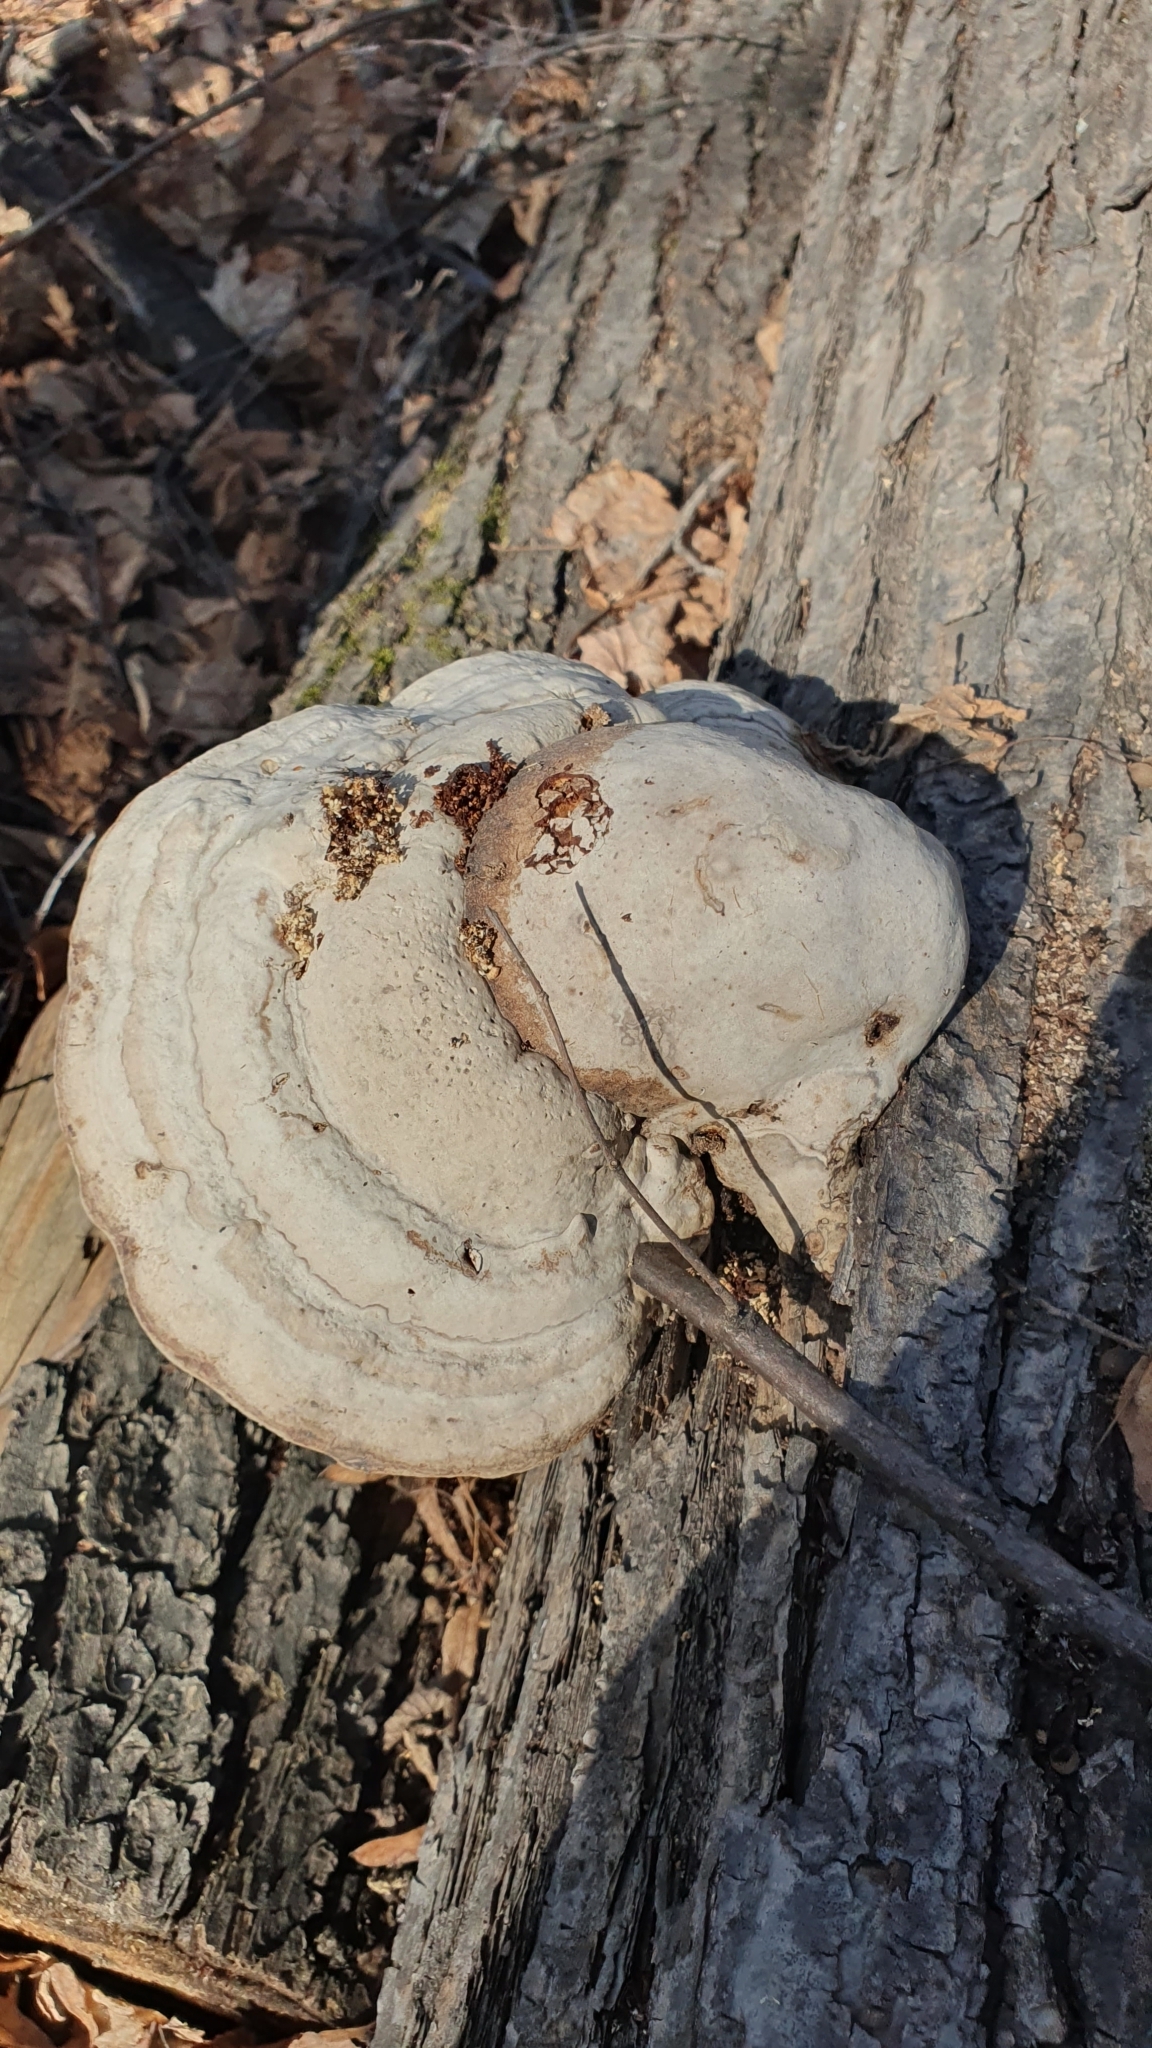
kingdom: Fungi
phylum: Basidiomycota
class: Agaricomycetes
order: Polyporales
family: Polyporaceae
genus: Fomes
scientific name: Fomes fomentarius
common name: Hoof fungus
